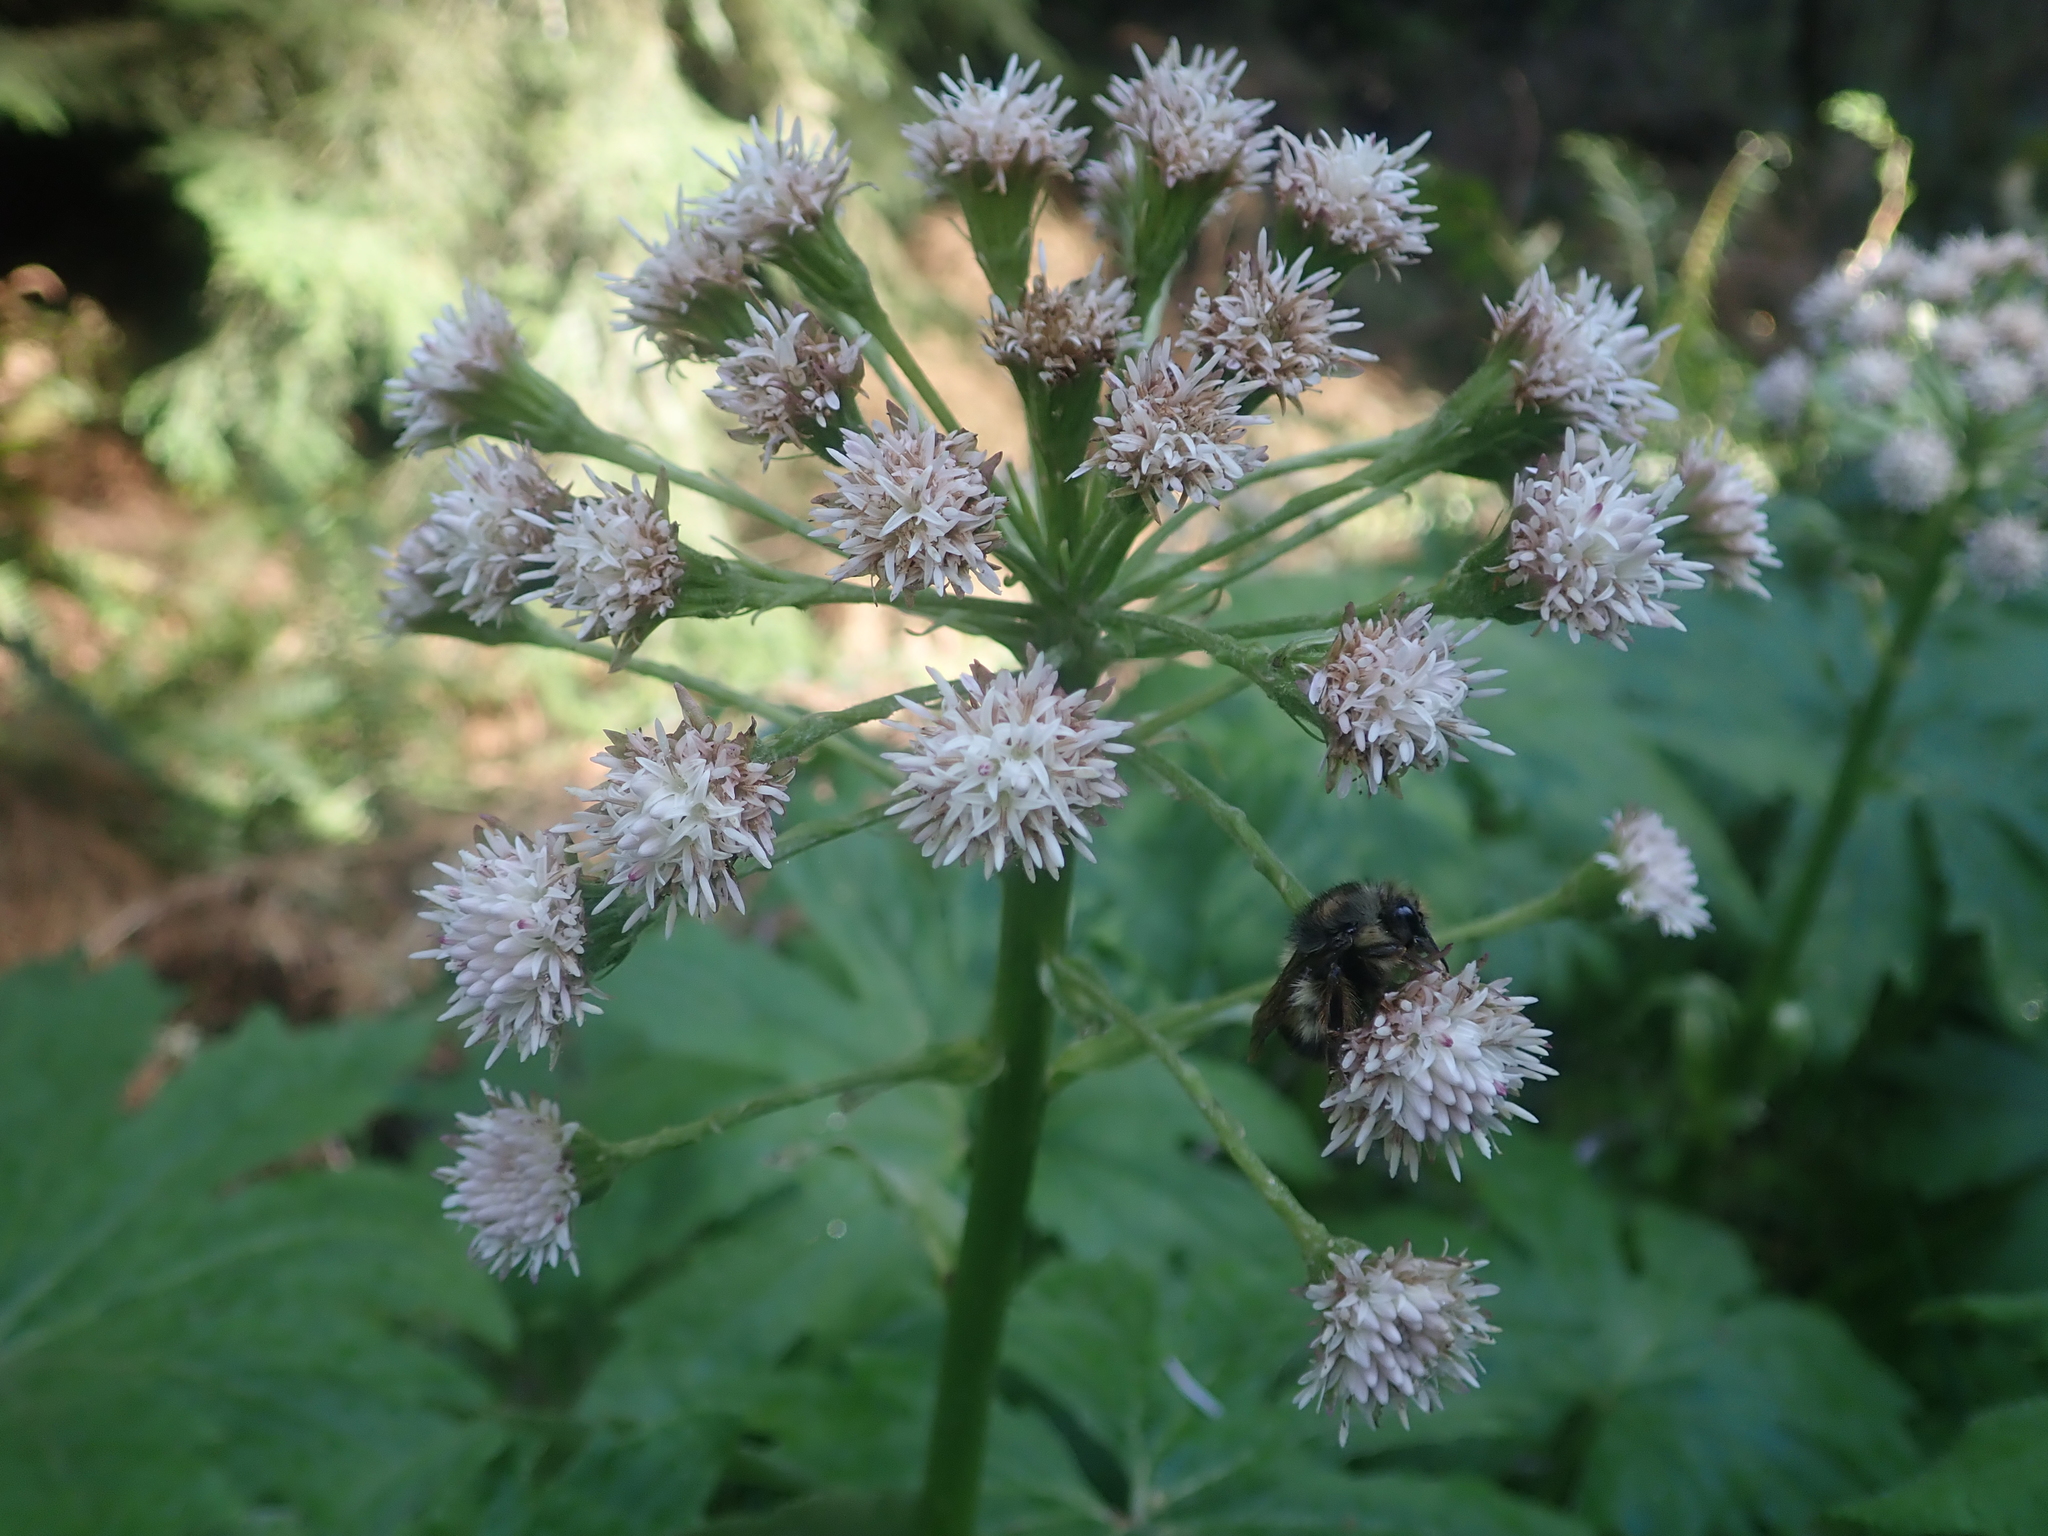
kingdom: Plantae
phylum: Tracheophyta
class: Magnoliopsida
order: Asterales
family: Asteraceae
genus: Petasites
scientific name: Petasites frigidus
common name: Arctic butterbur
